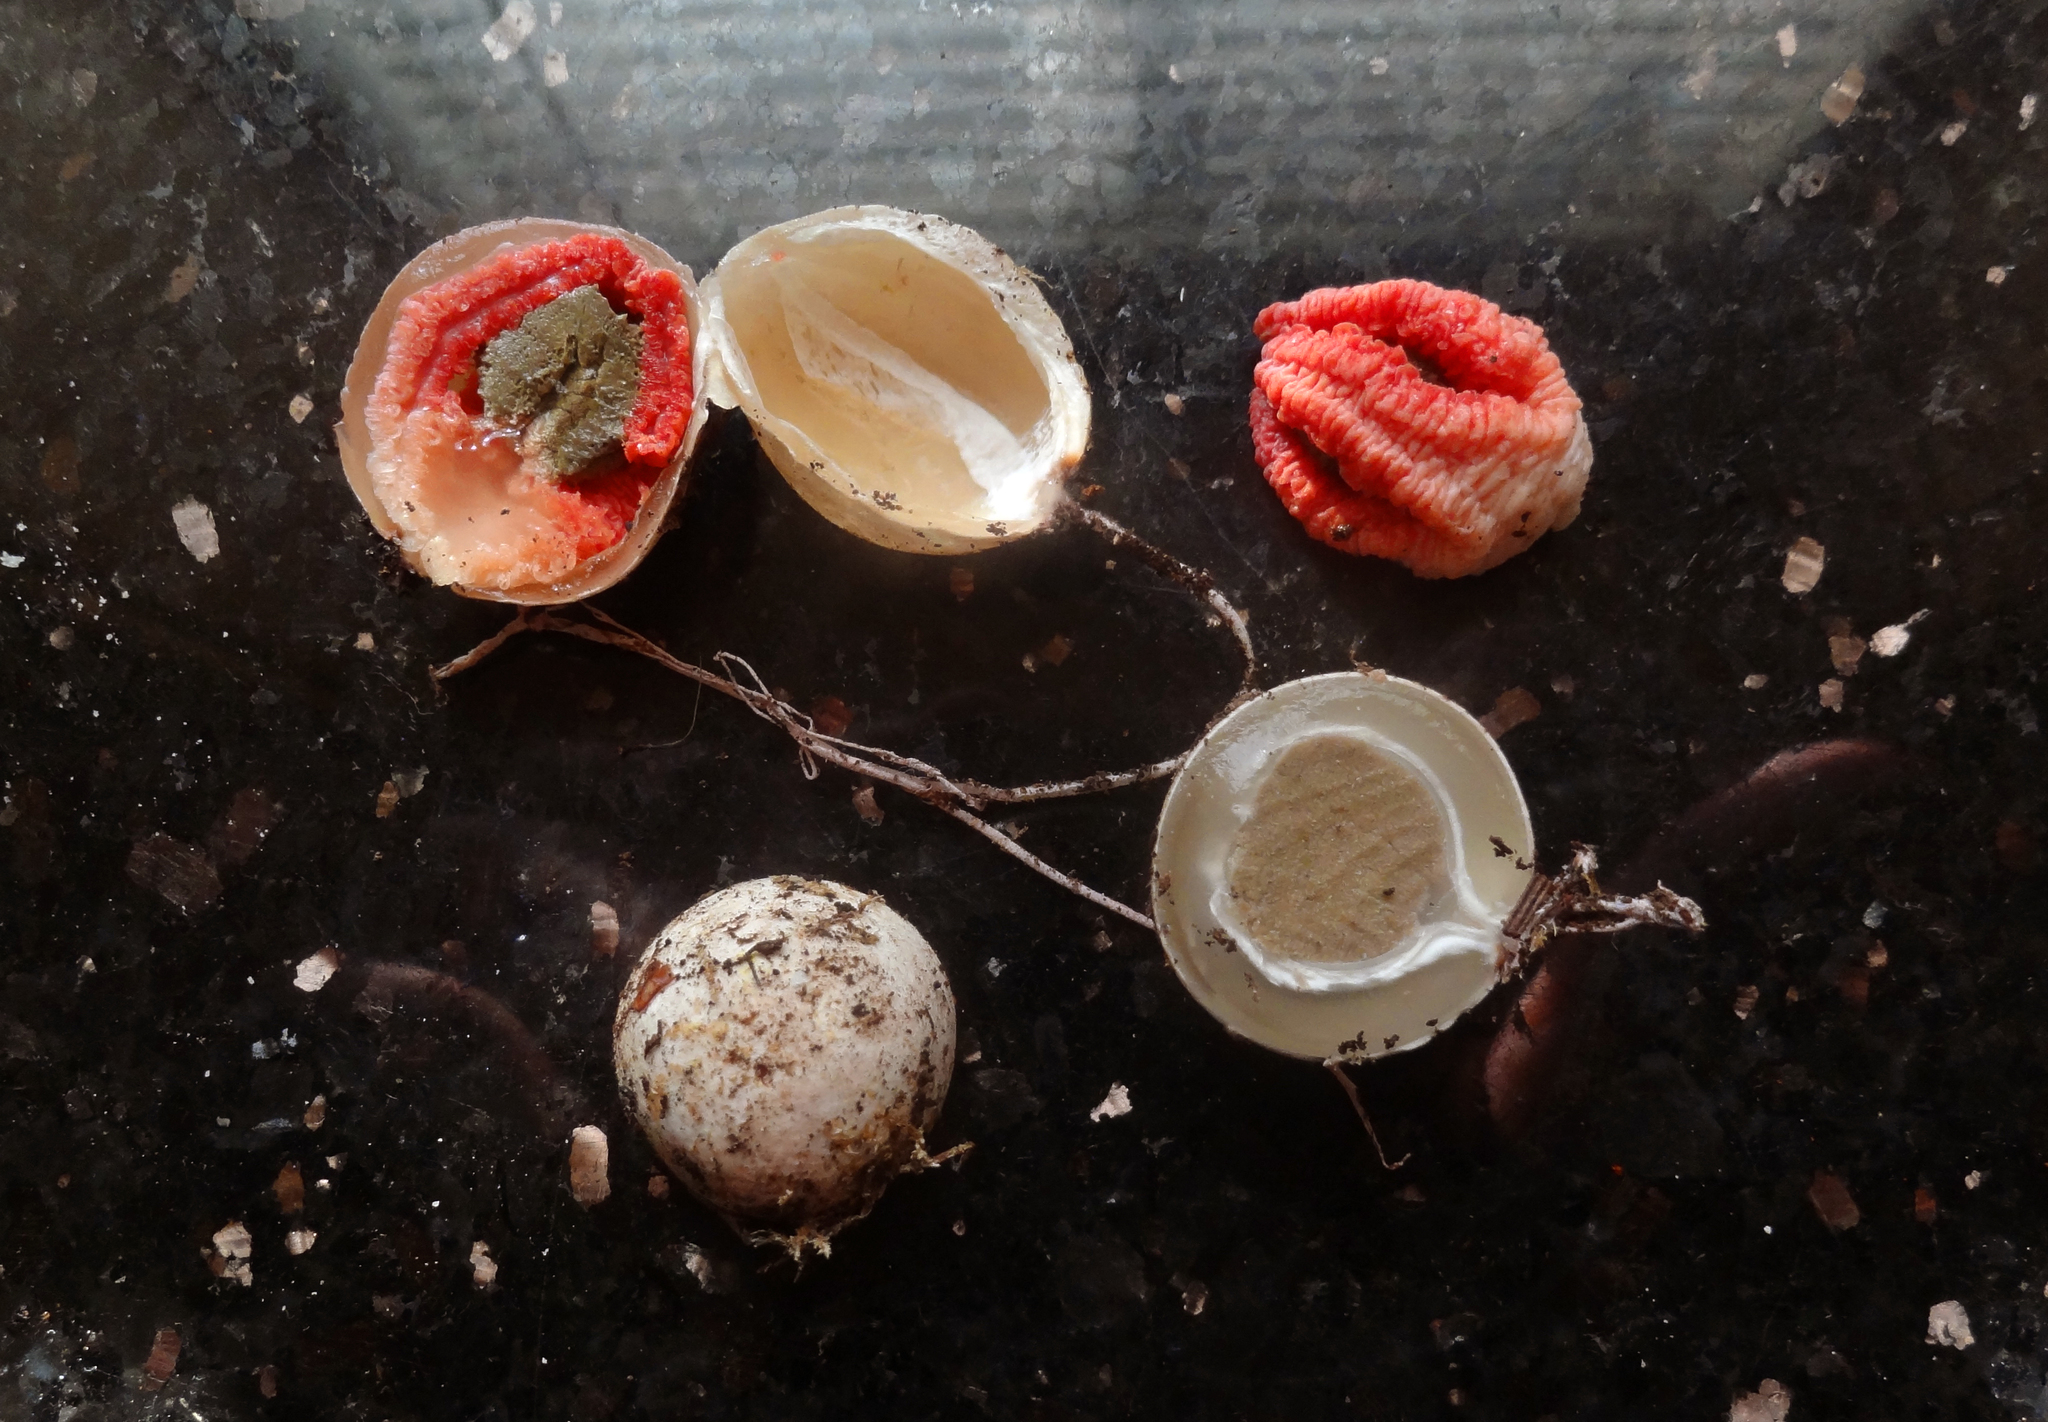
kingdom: Fungi
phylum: Basidiomycota
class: Agaricomycetes
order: Phallales
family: Phallaceae
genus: Clathrus
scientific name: Clathrus archeri
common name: Devil's fingers
